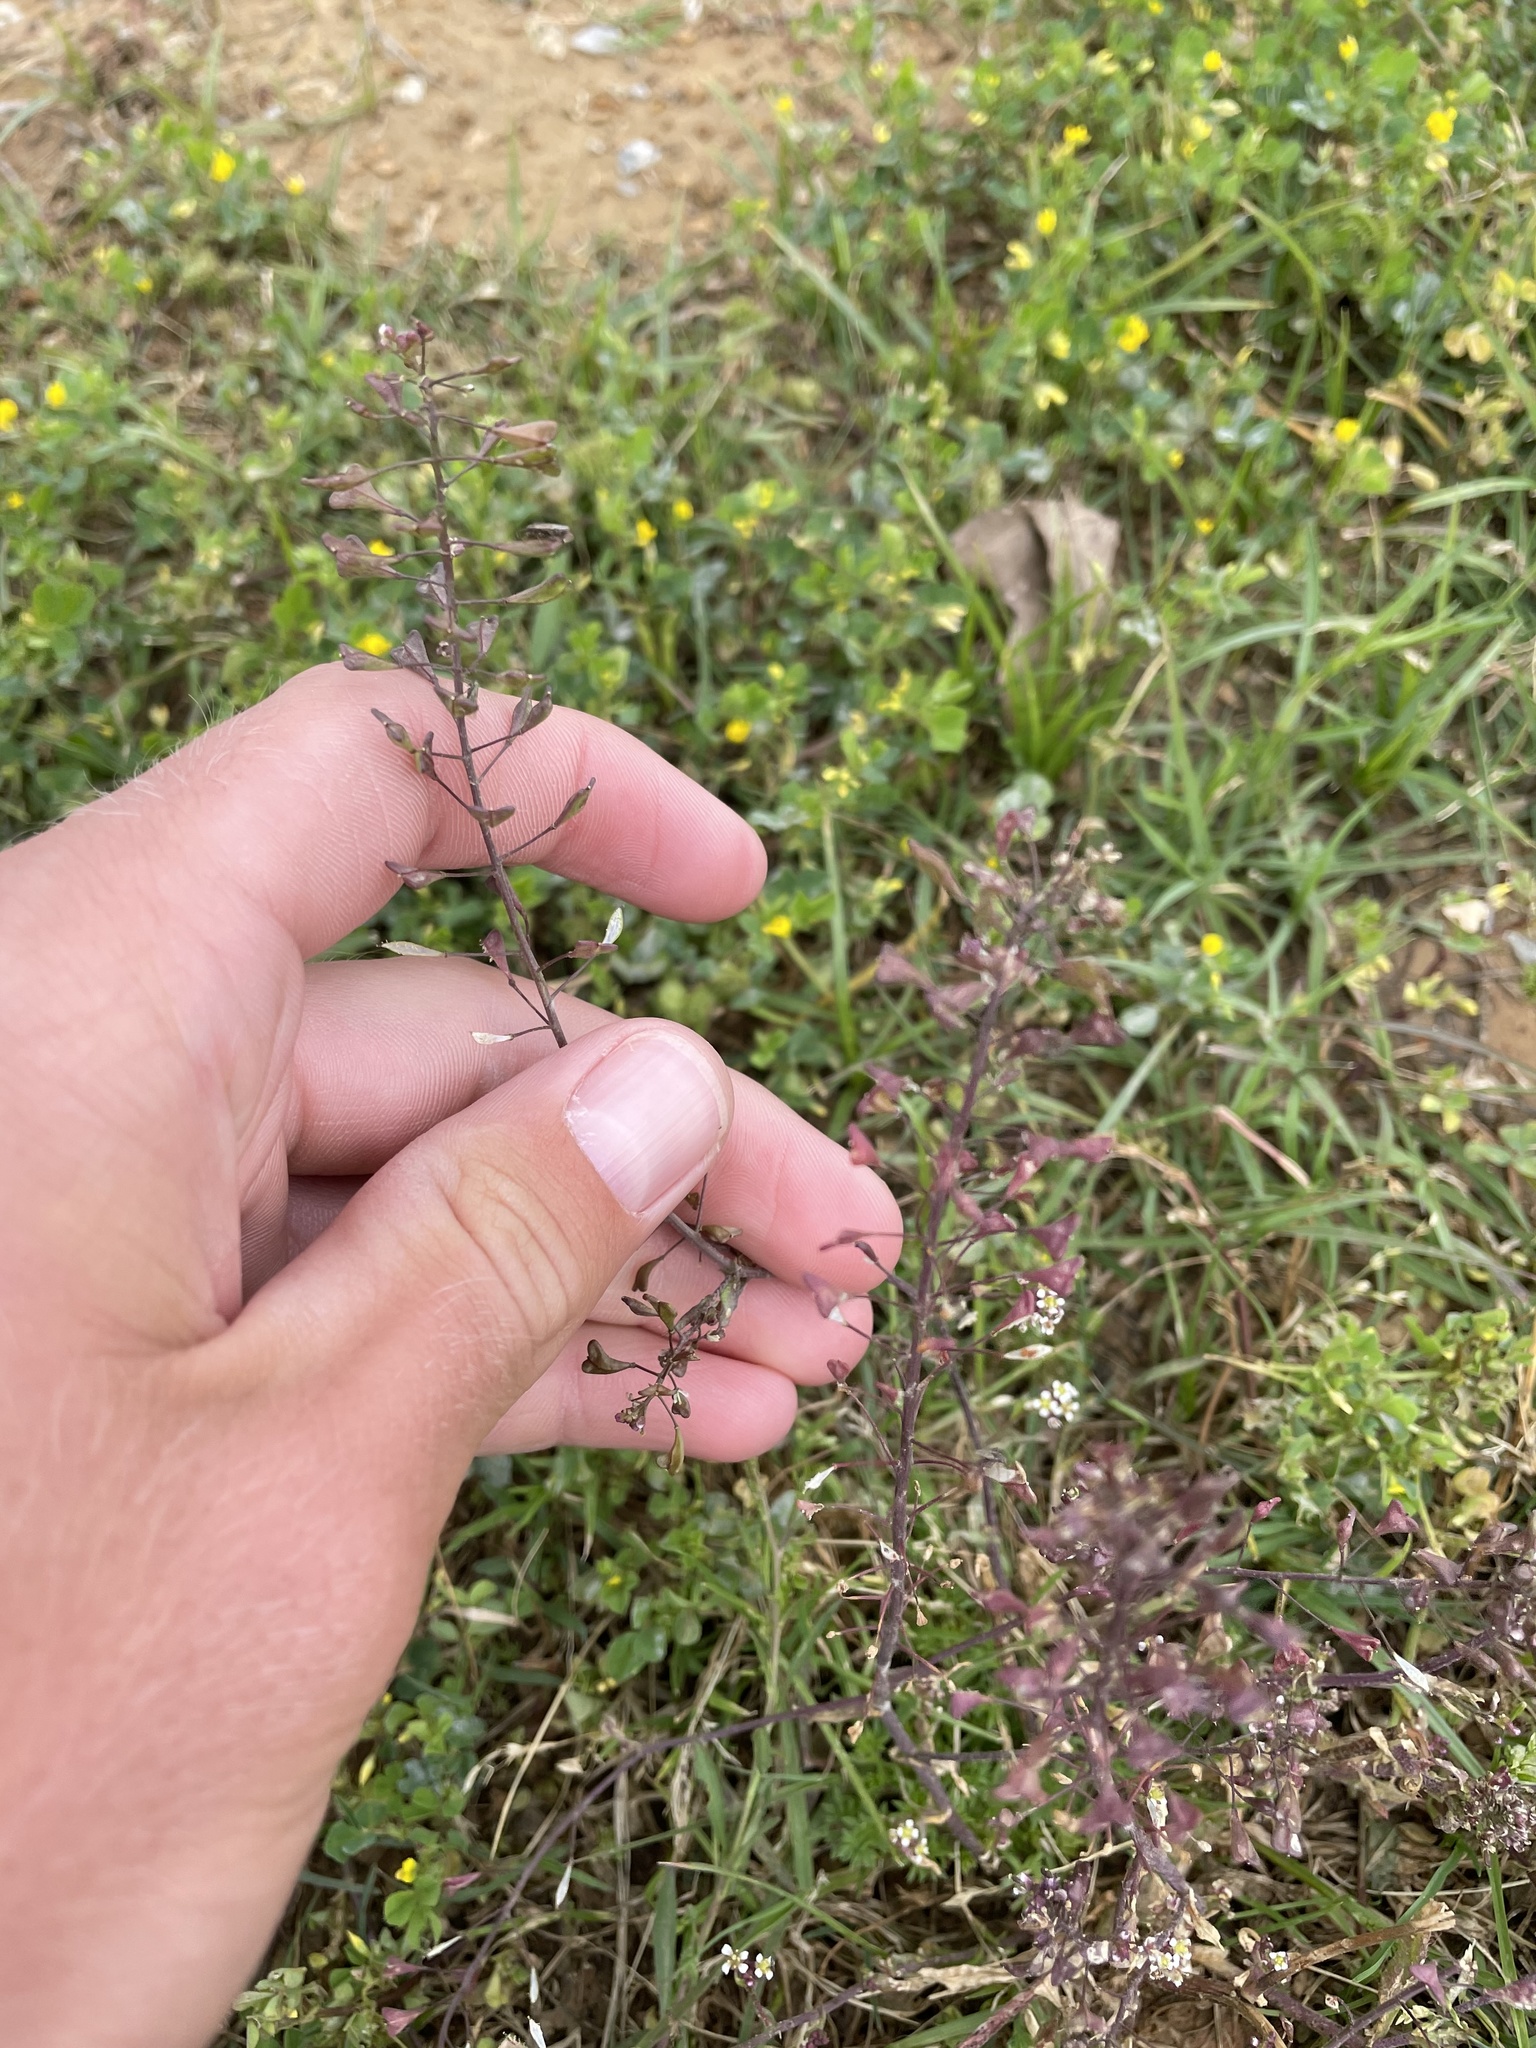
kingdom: Plantae
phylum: Tracheophyta
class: Magnoliopsida
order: Brassicales
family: Brassicaceae
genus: Capsella
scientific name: Capsella bursa-pastoris
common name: Shepherd's purse
